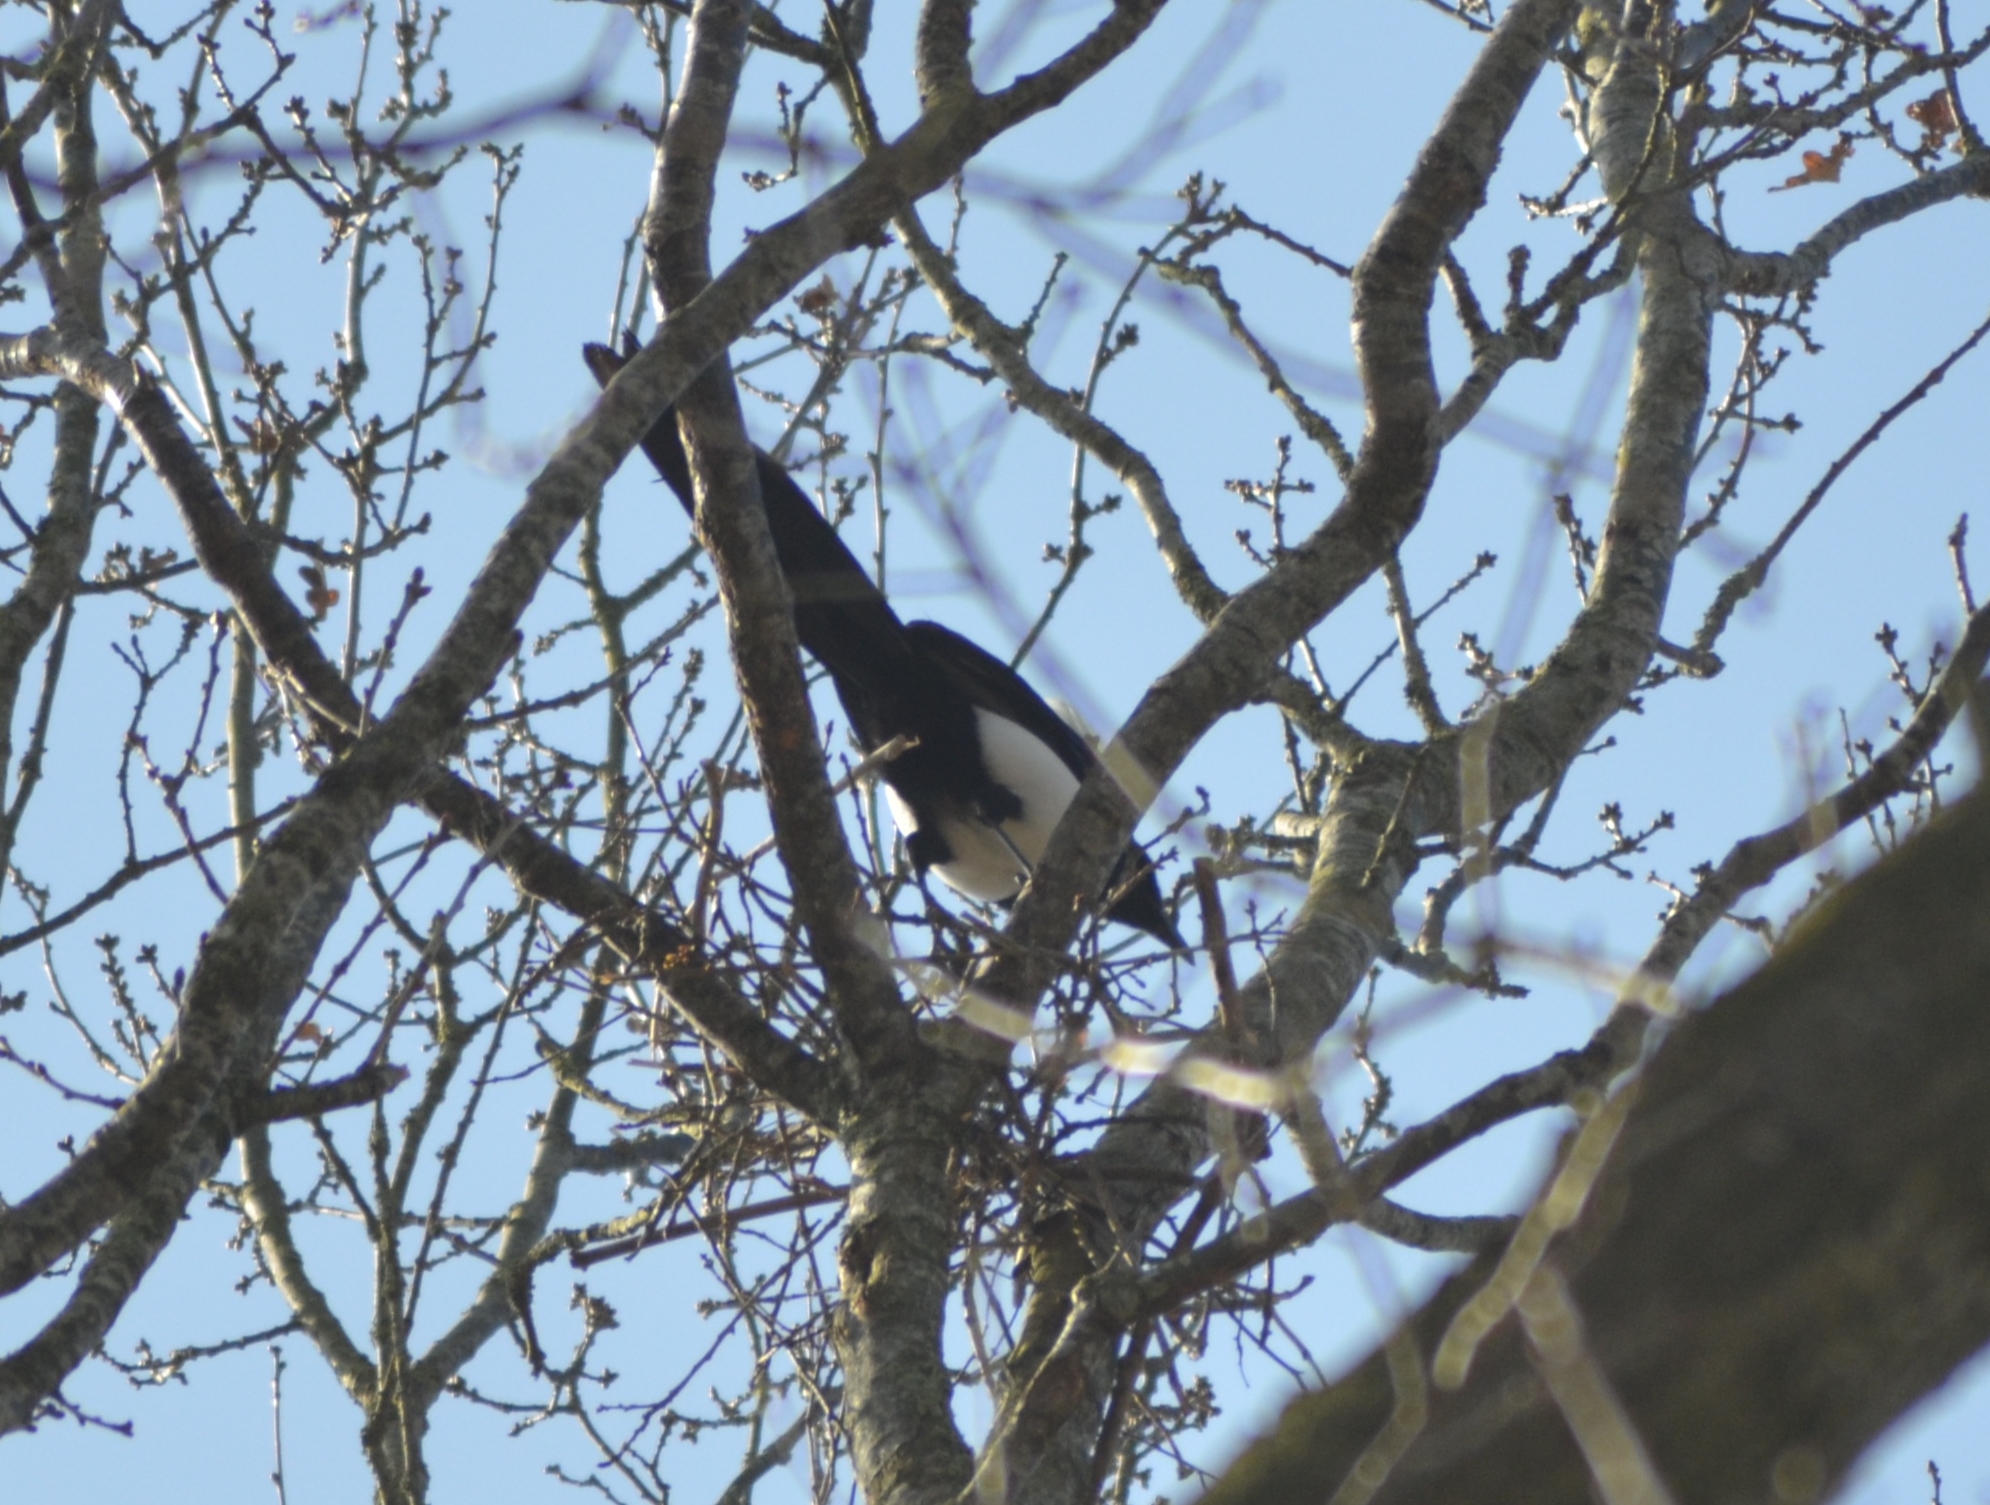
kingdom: Animalia
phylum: Chordata
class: Aves
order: Passeriformes
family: Corvidae
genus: Pica
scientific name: Pica pica
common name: Eurasian magpie
